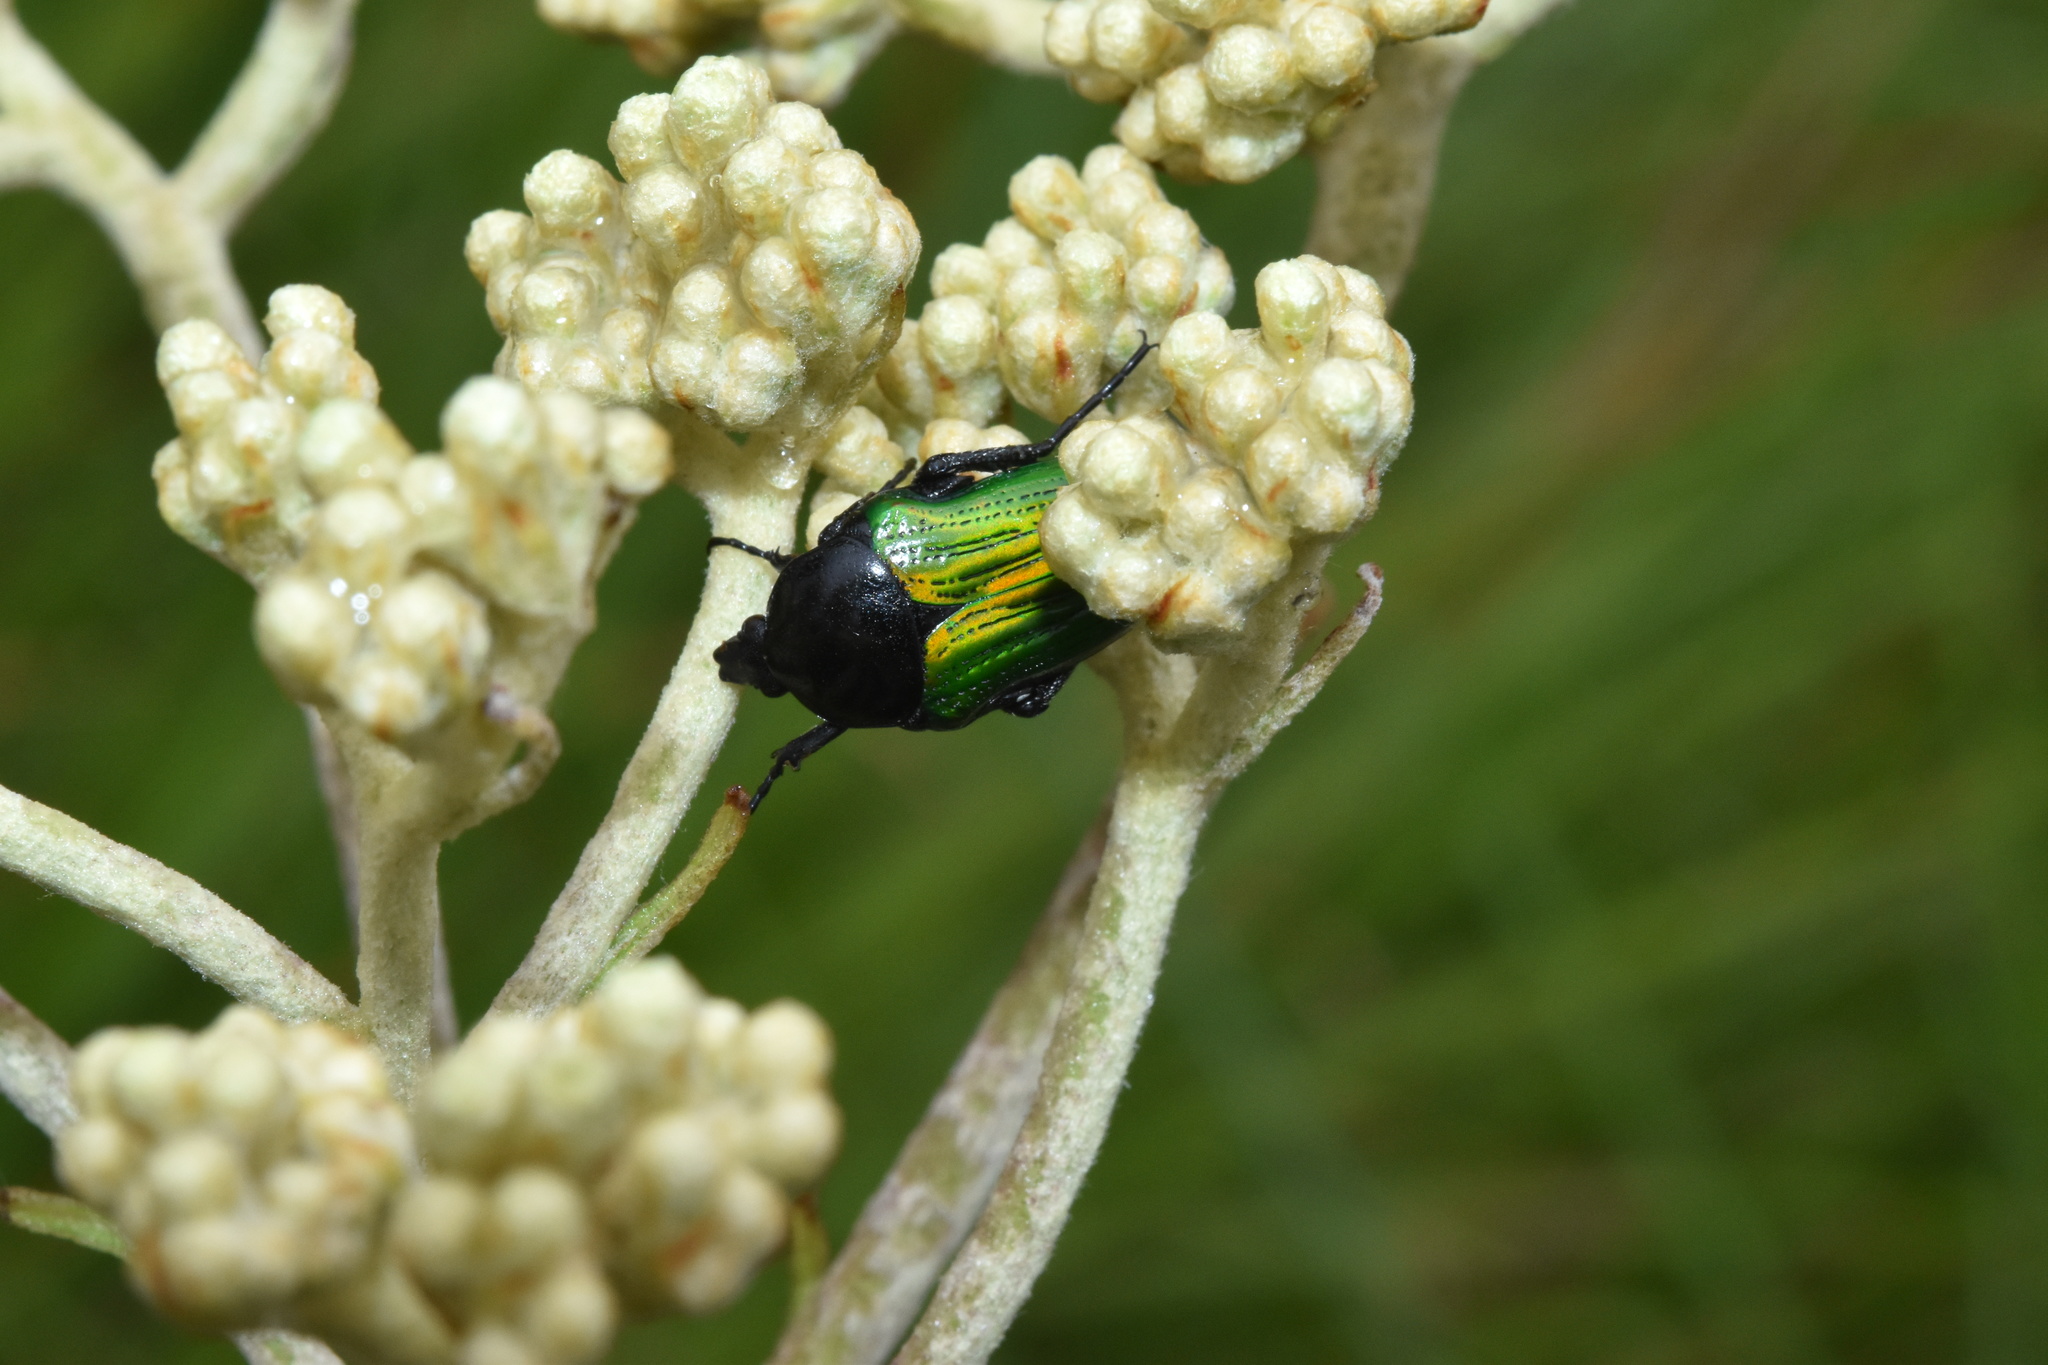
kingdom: Animalia
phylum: Arthropoda
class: Insecta
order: Coleoptera
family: Scarabaeidae
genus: Leucocelis
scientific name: Leucocelis haemorrhoidalis
